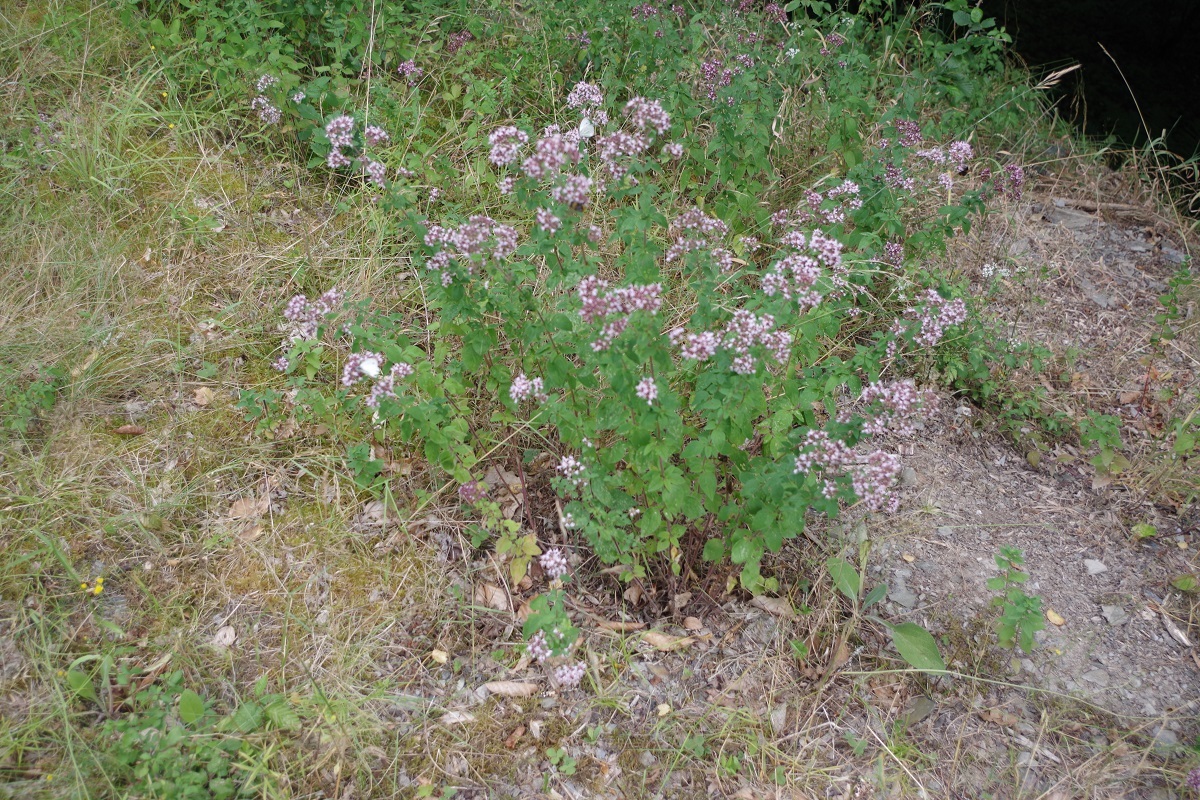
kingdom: Plantae
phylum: Tracheophyta
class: Magnoliopsida
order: Lamiales
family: Lamiaceae
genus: Origanum
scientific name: Origanum vulgare
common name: Wild marjoram
